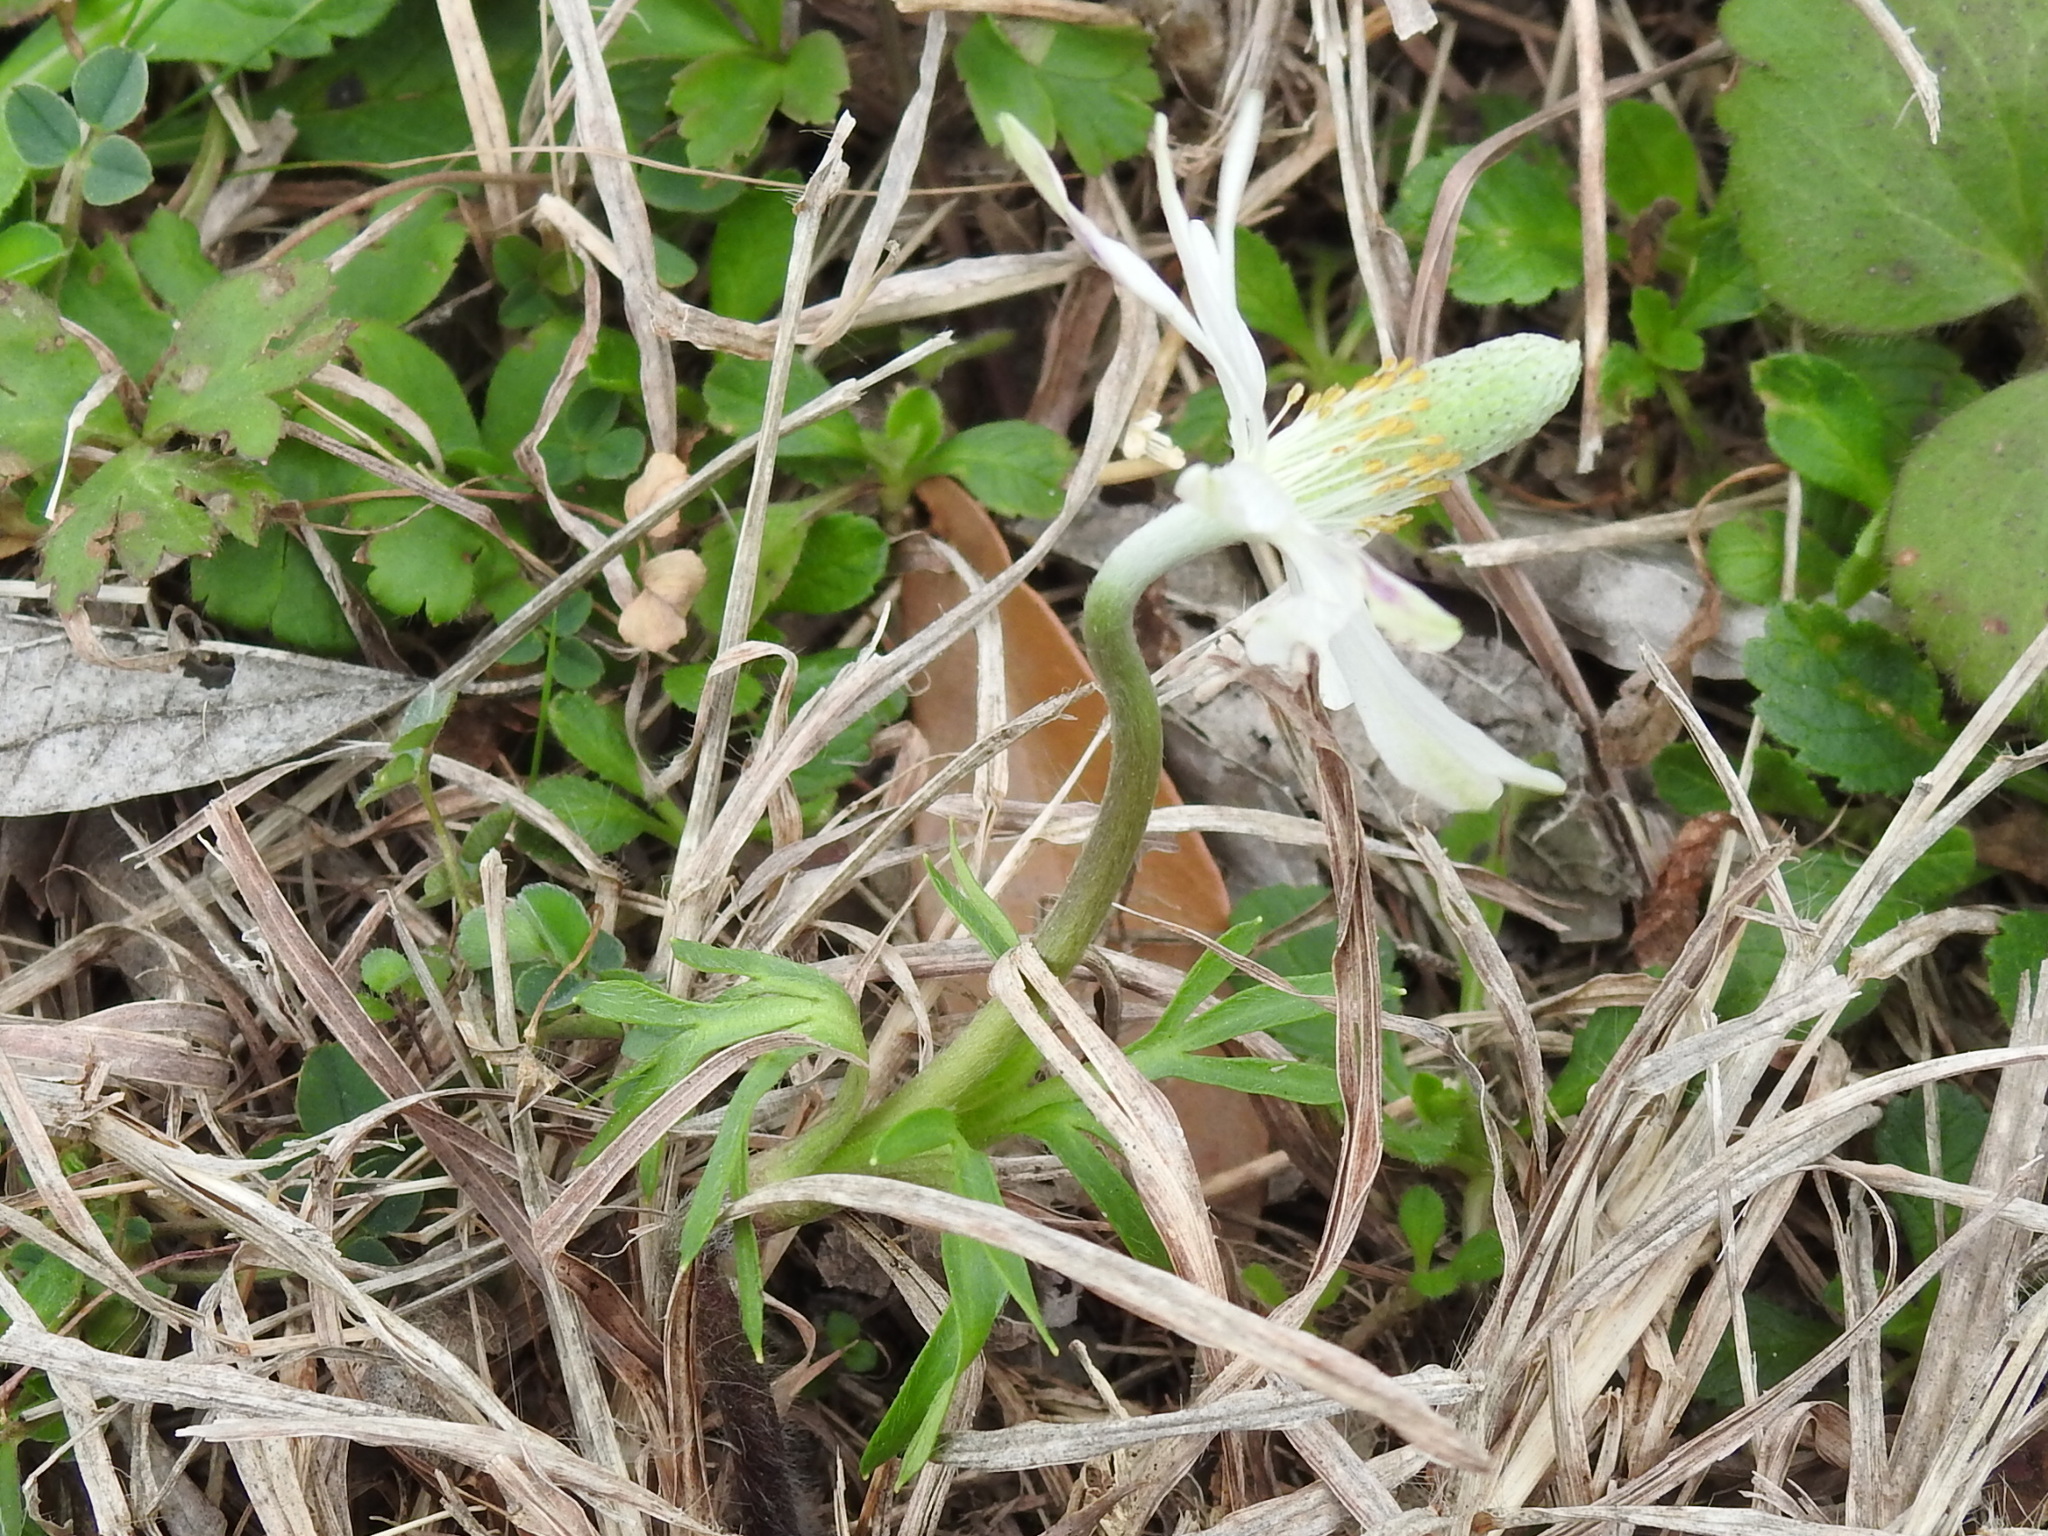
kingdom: Plantae
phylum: Tracheophyta
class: Magnoliopsida
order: Ranunculales
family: Ranunculaceae
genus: Anemone
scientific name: Anemone berlandieri
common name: Ten-petal anemone
